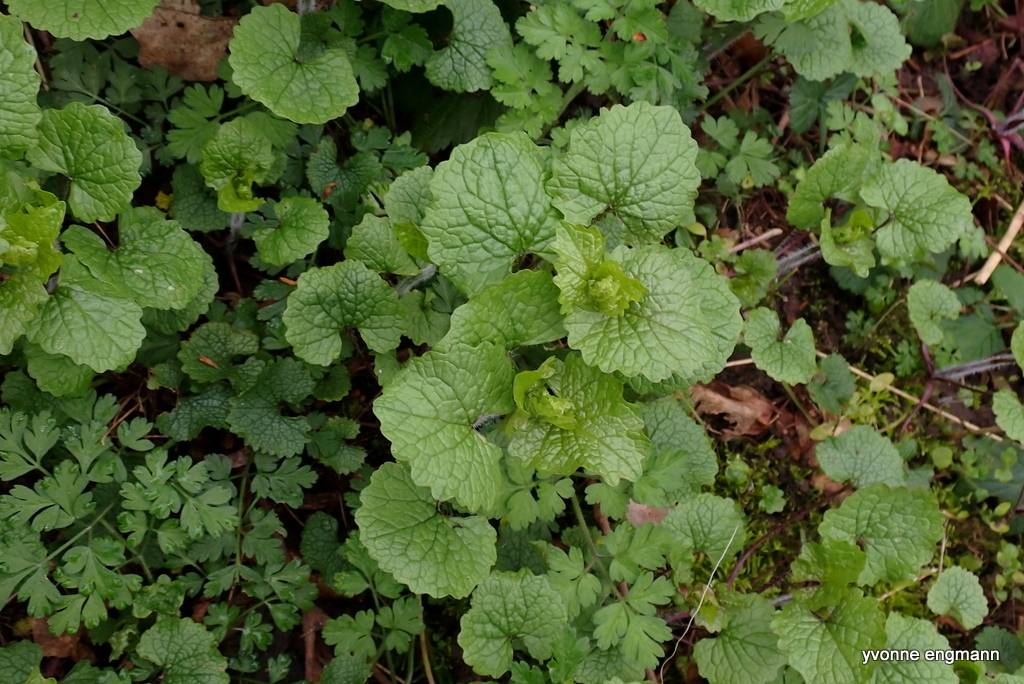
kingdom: Plantae
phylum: Tracheophyta
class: Magnoliopsida
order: Brassicales
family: Brassicaceae
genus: Alliaria
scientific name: Alliaria petiolata
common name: Garlic mustard
